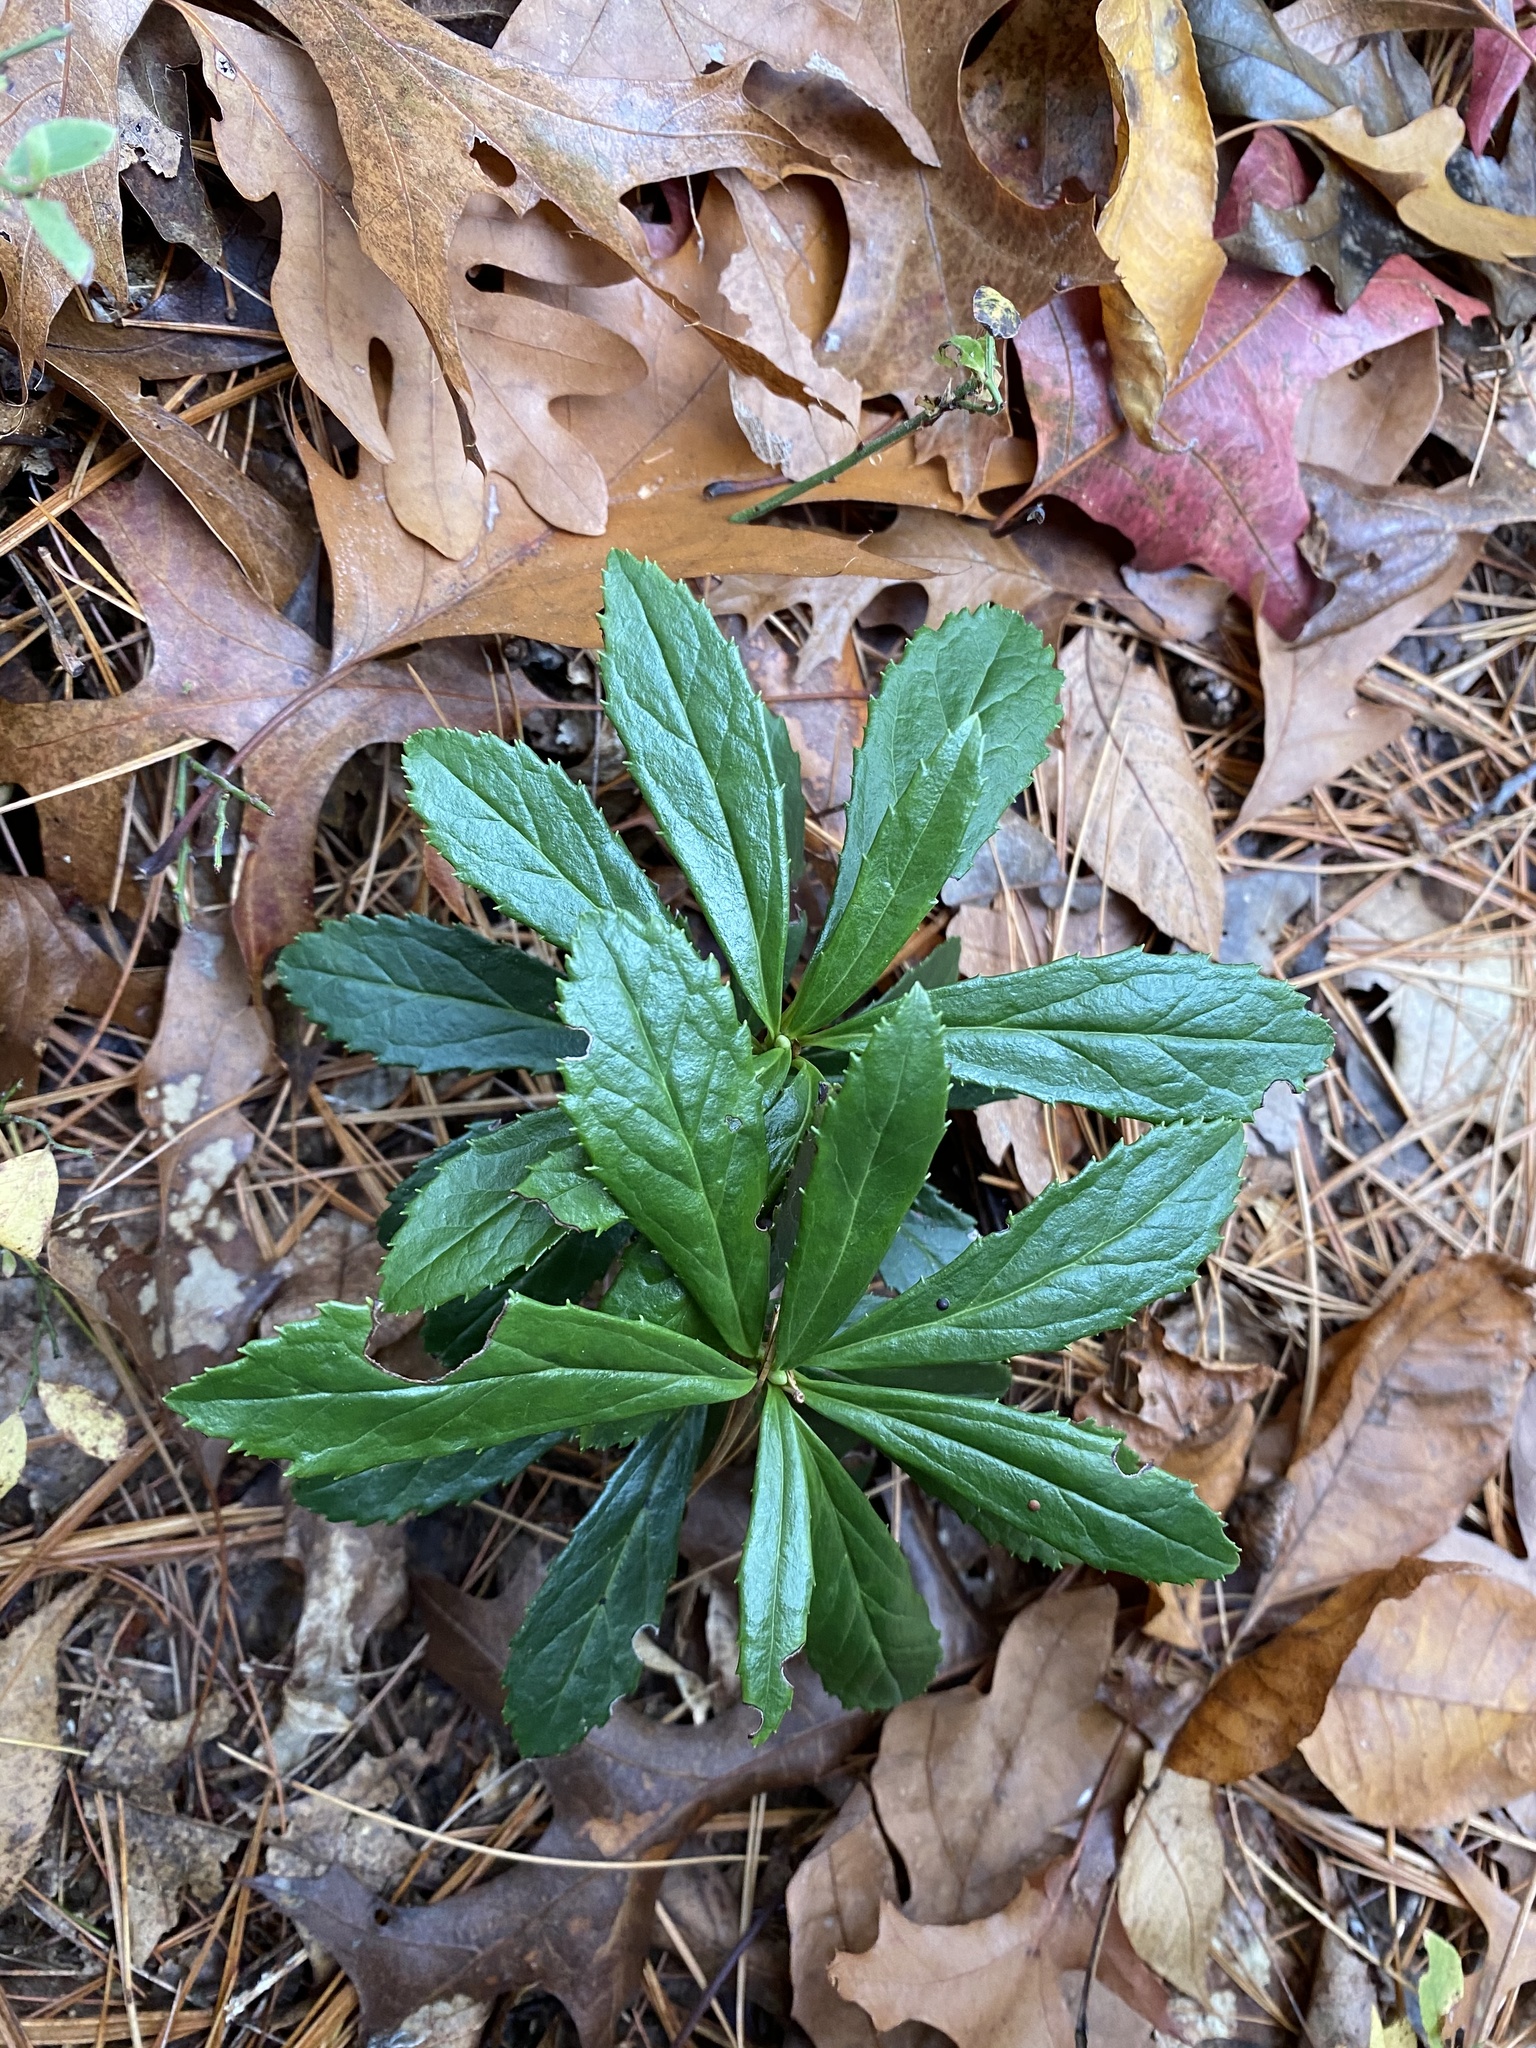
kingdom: Plantae
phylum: Tracheophyta
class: Magnoliopsida
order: Ericales
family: Ericaceae
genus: Chimaphila
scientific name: Chimaphila umbellata
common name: Pipsissewa
